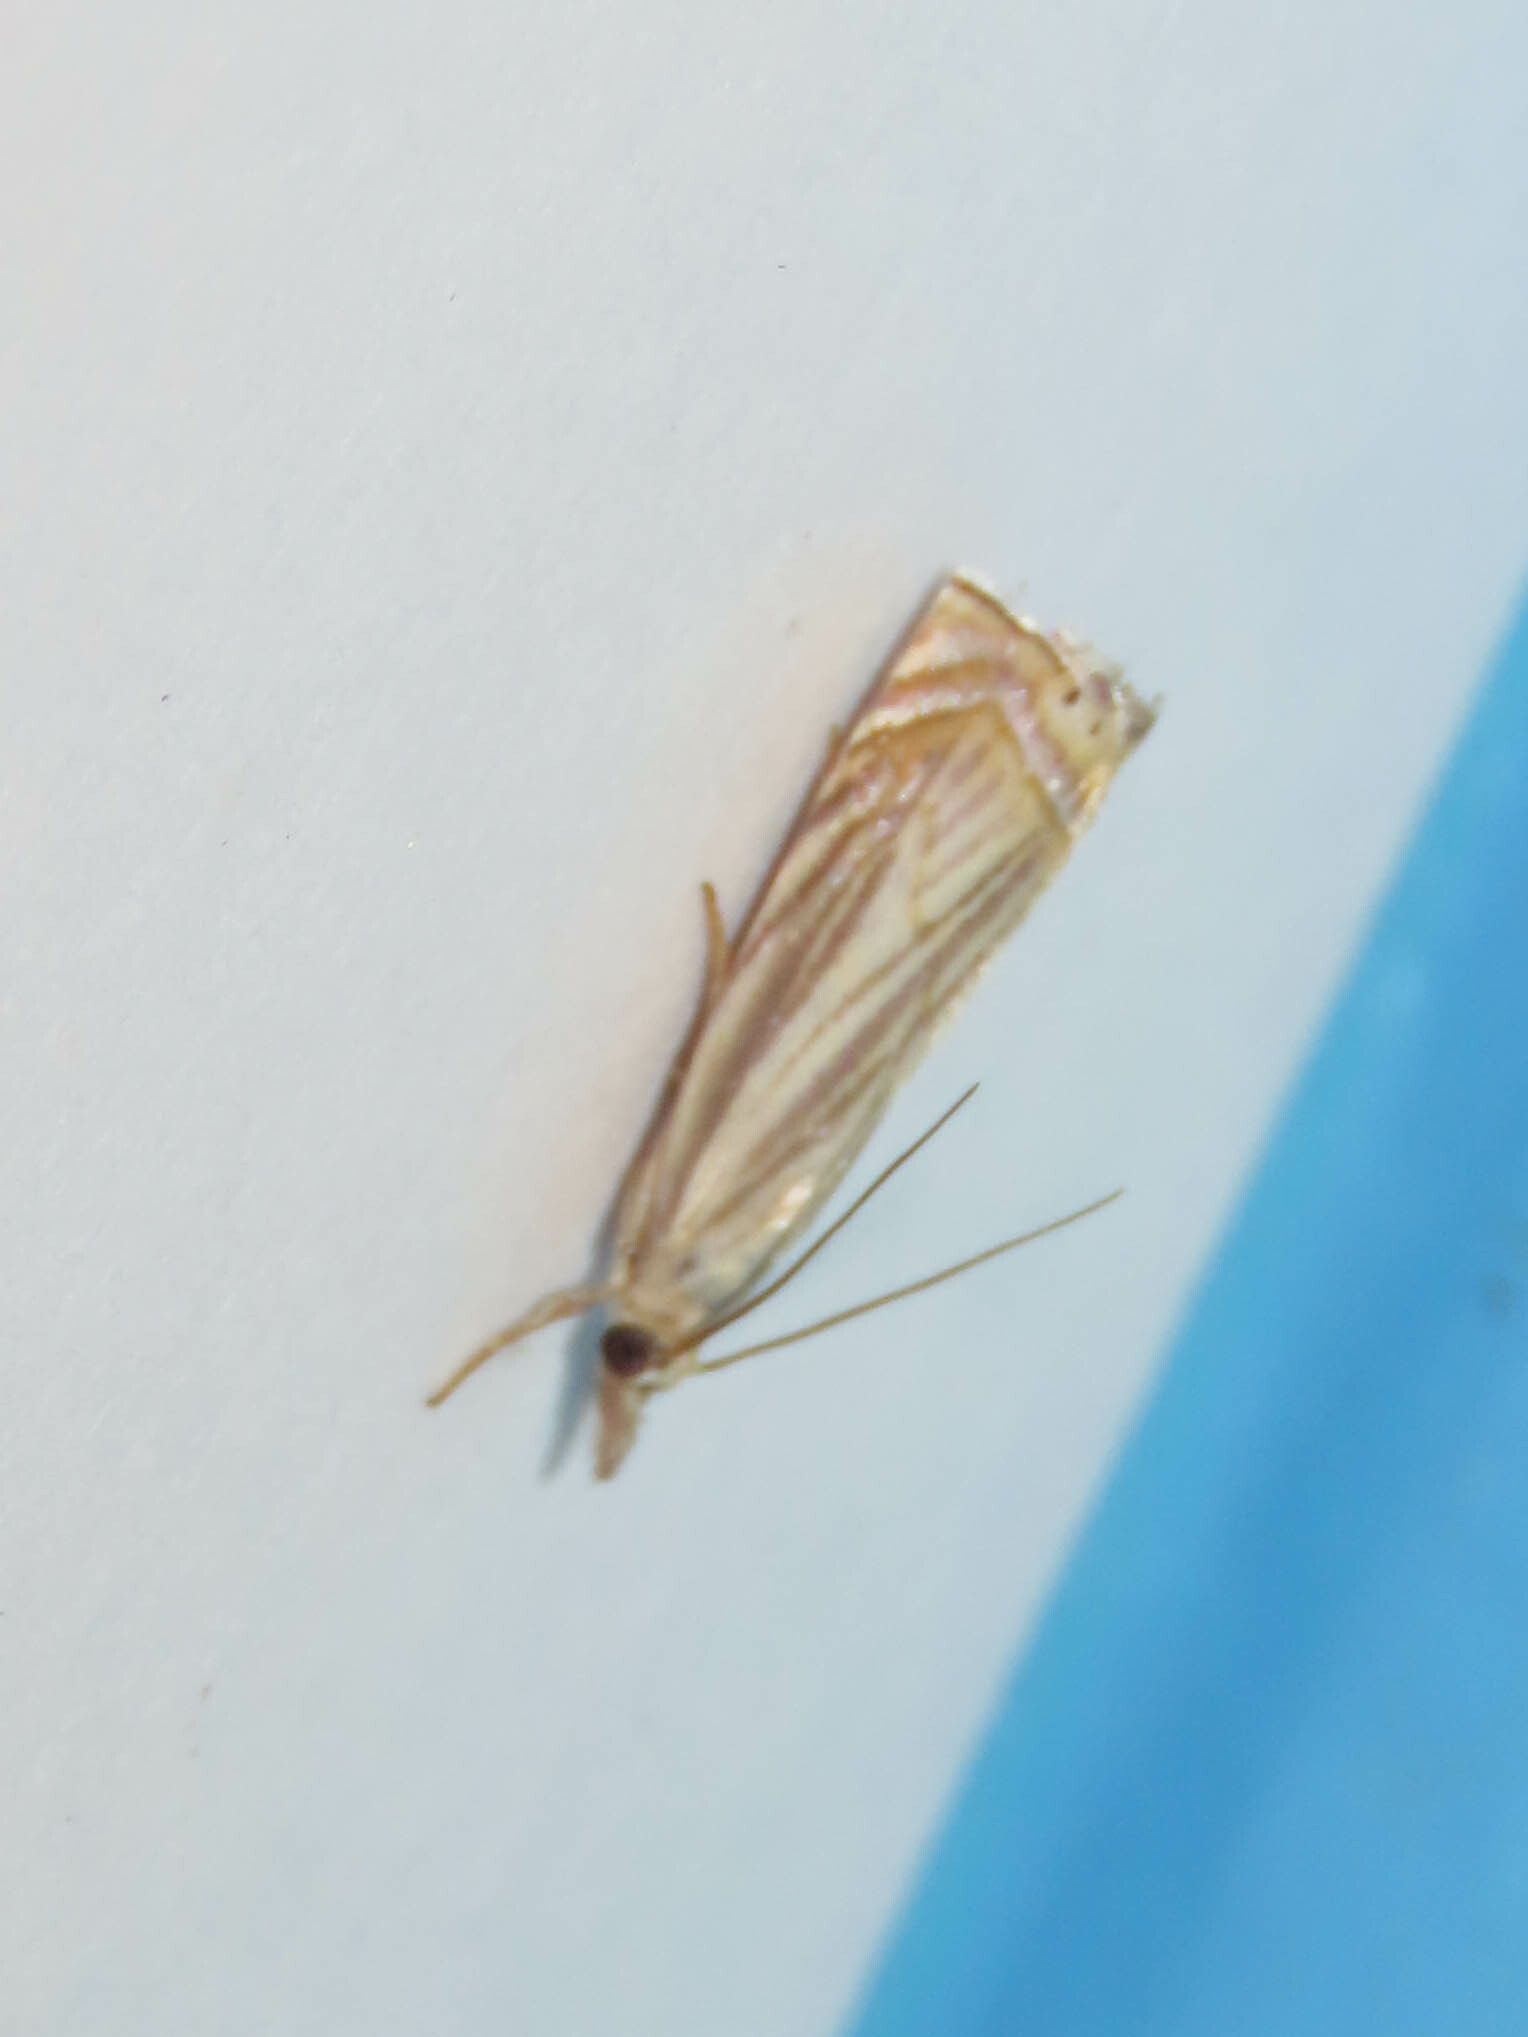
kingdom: Animalia
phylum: Arthropoda
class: Insecta
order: Lepidoptera
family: Crambidae
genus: Chrysoteuchia
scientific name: Chrysoteuchia topiarius
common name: Topiary grass-veneer
